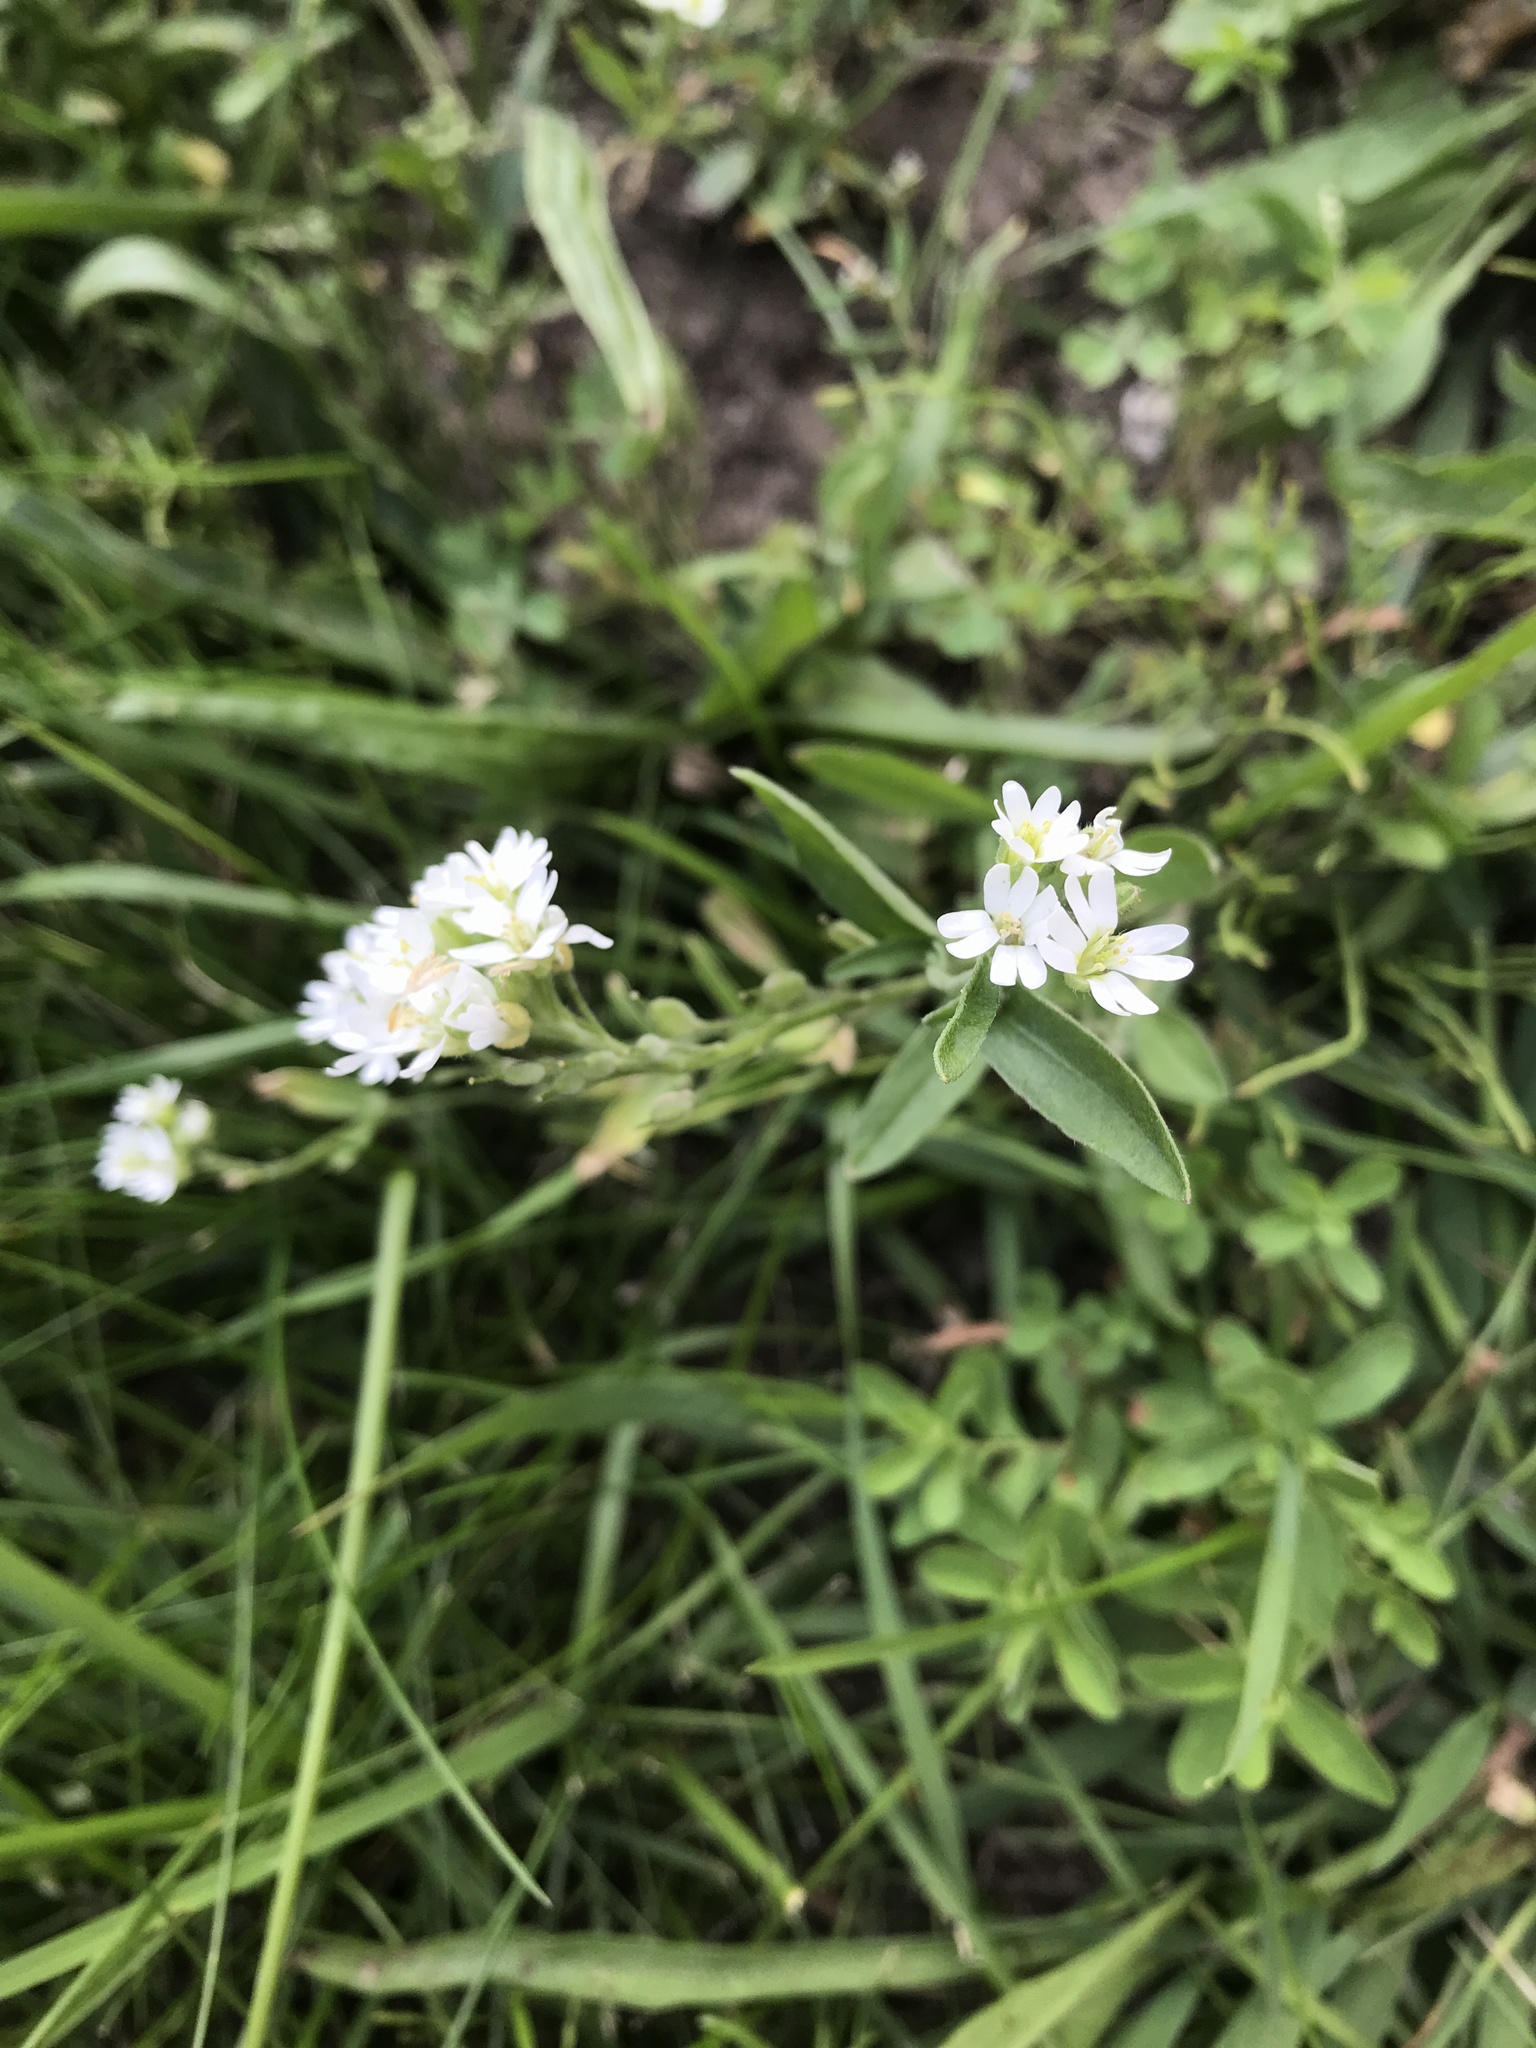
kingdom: Plantae
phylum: Tracheophyta
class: Magnoliopsida
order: Brassicales
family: Brassicaceae
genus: Berteroa
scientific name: Berteroa incana
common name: Hoary alison
